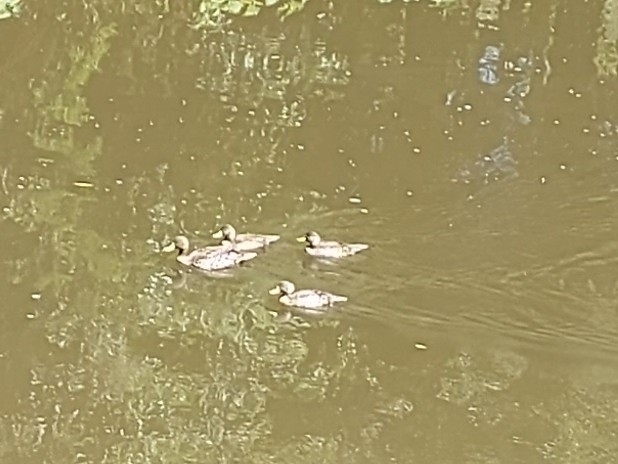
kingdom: Animalia
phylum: Chordata
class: Aves
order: Anseriformes
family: Anatidae
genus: Anas
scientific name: Anas undulata
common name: Yellow-billed duck
